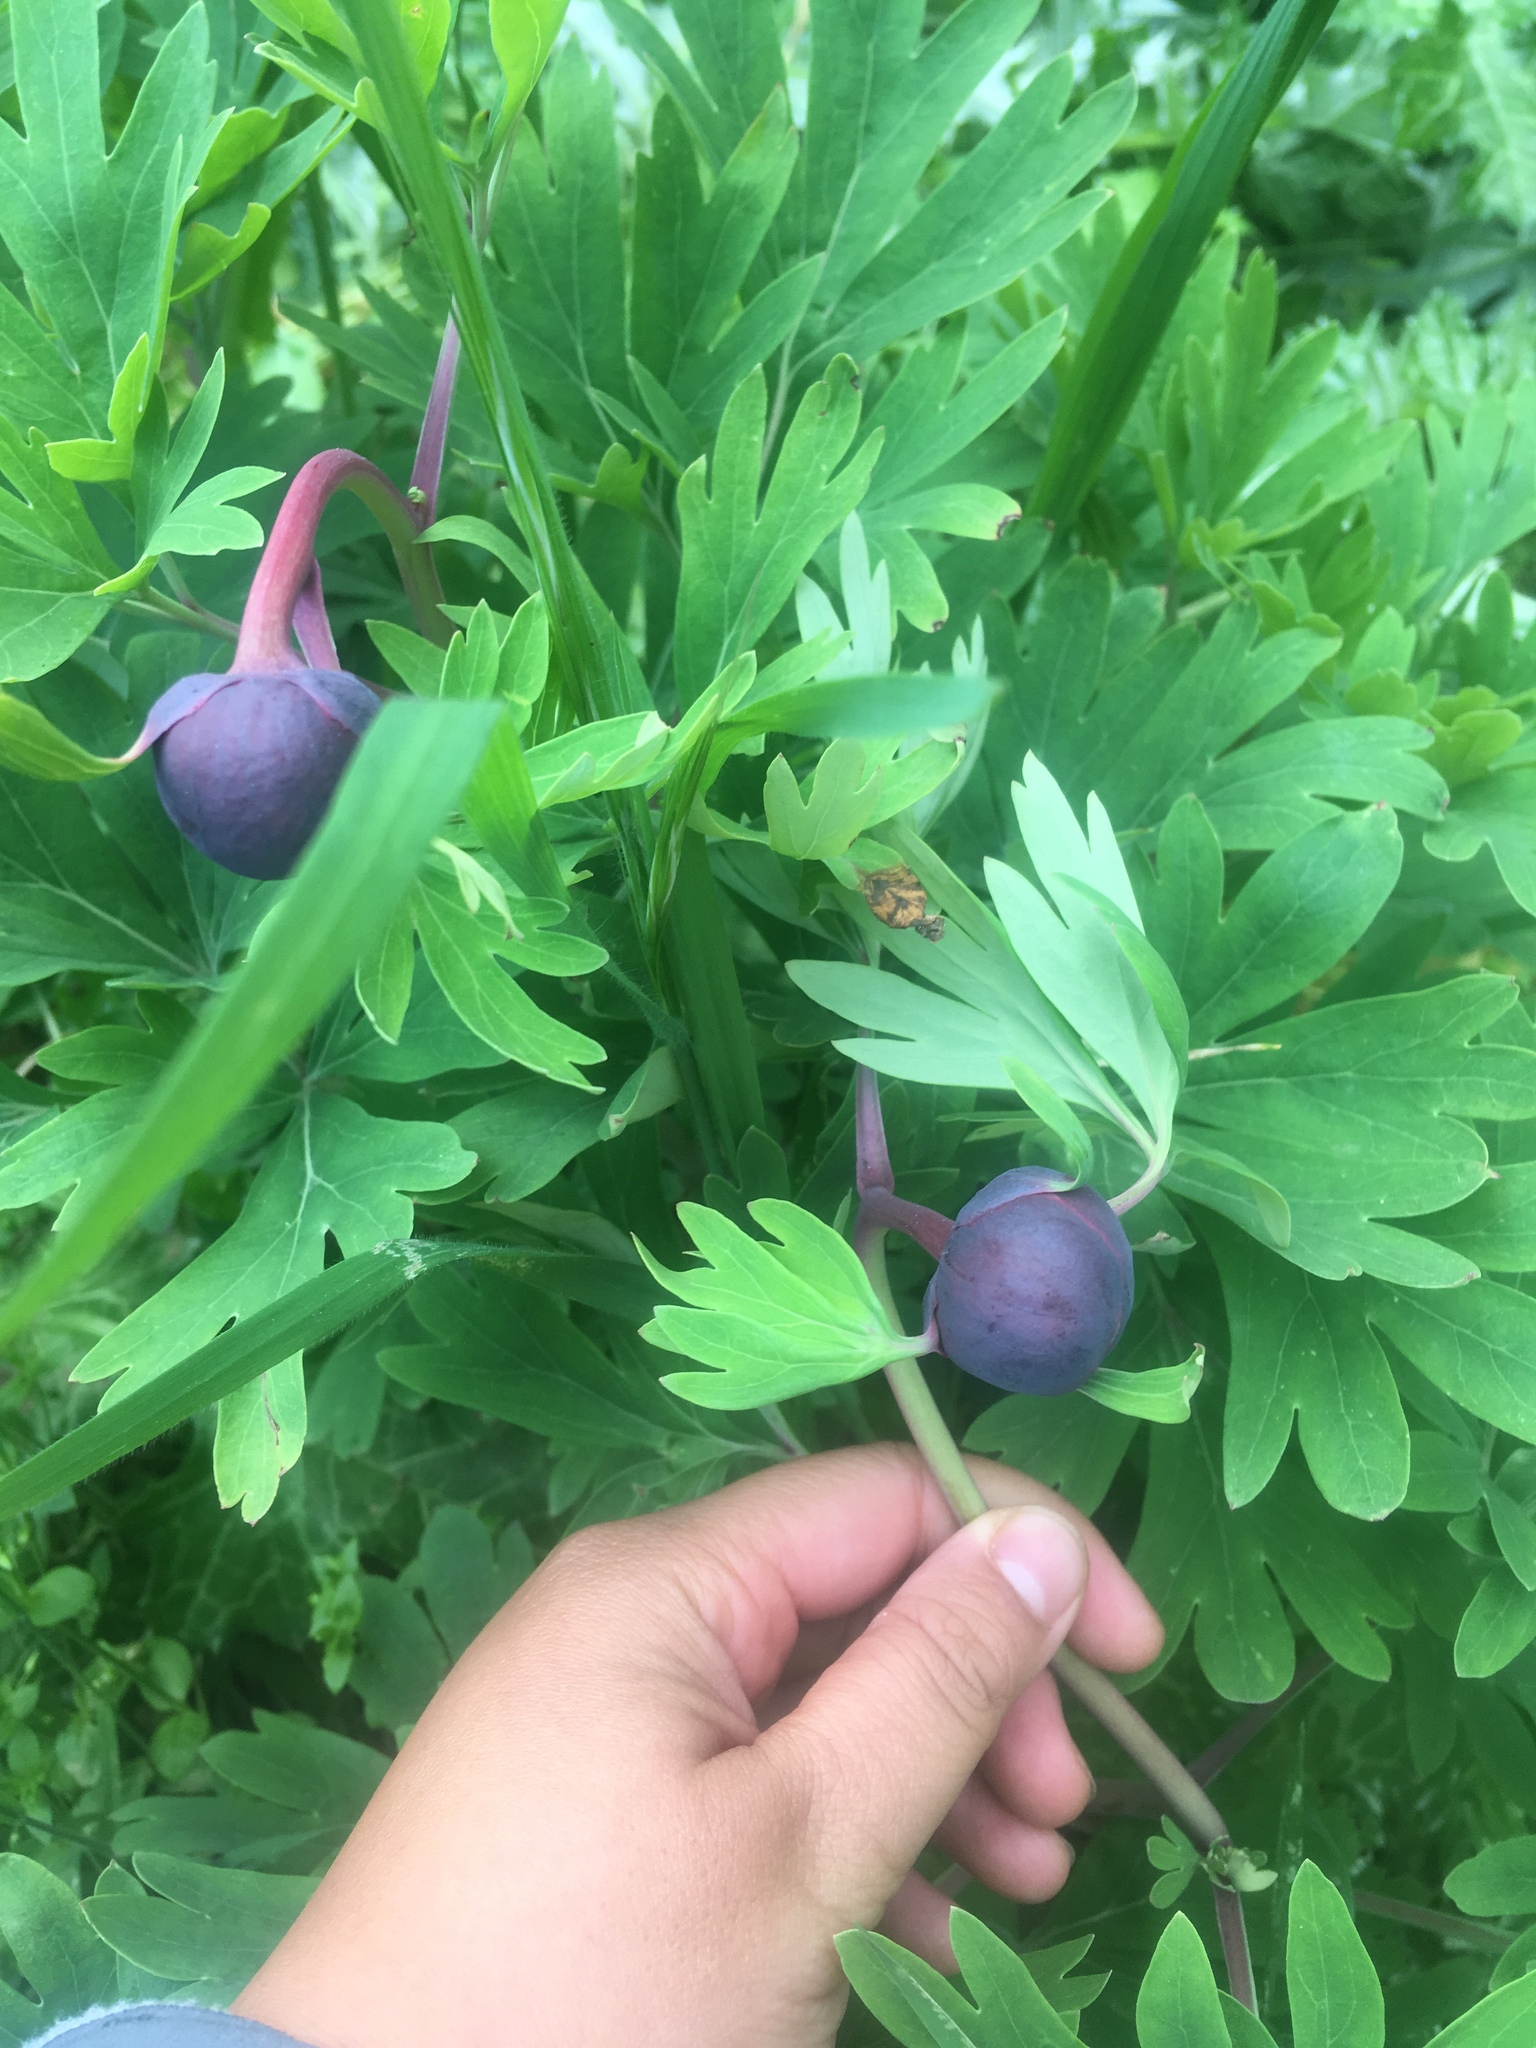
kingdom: Plantae
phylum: Tracheophyta
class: Magnoliopsida
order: Saxifragales
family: Paeoniaceae
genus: Paeonia
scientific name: Paeonia californica
